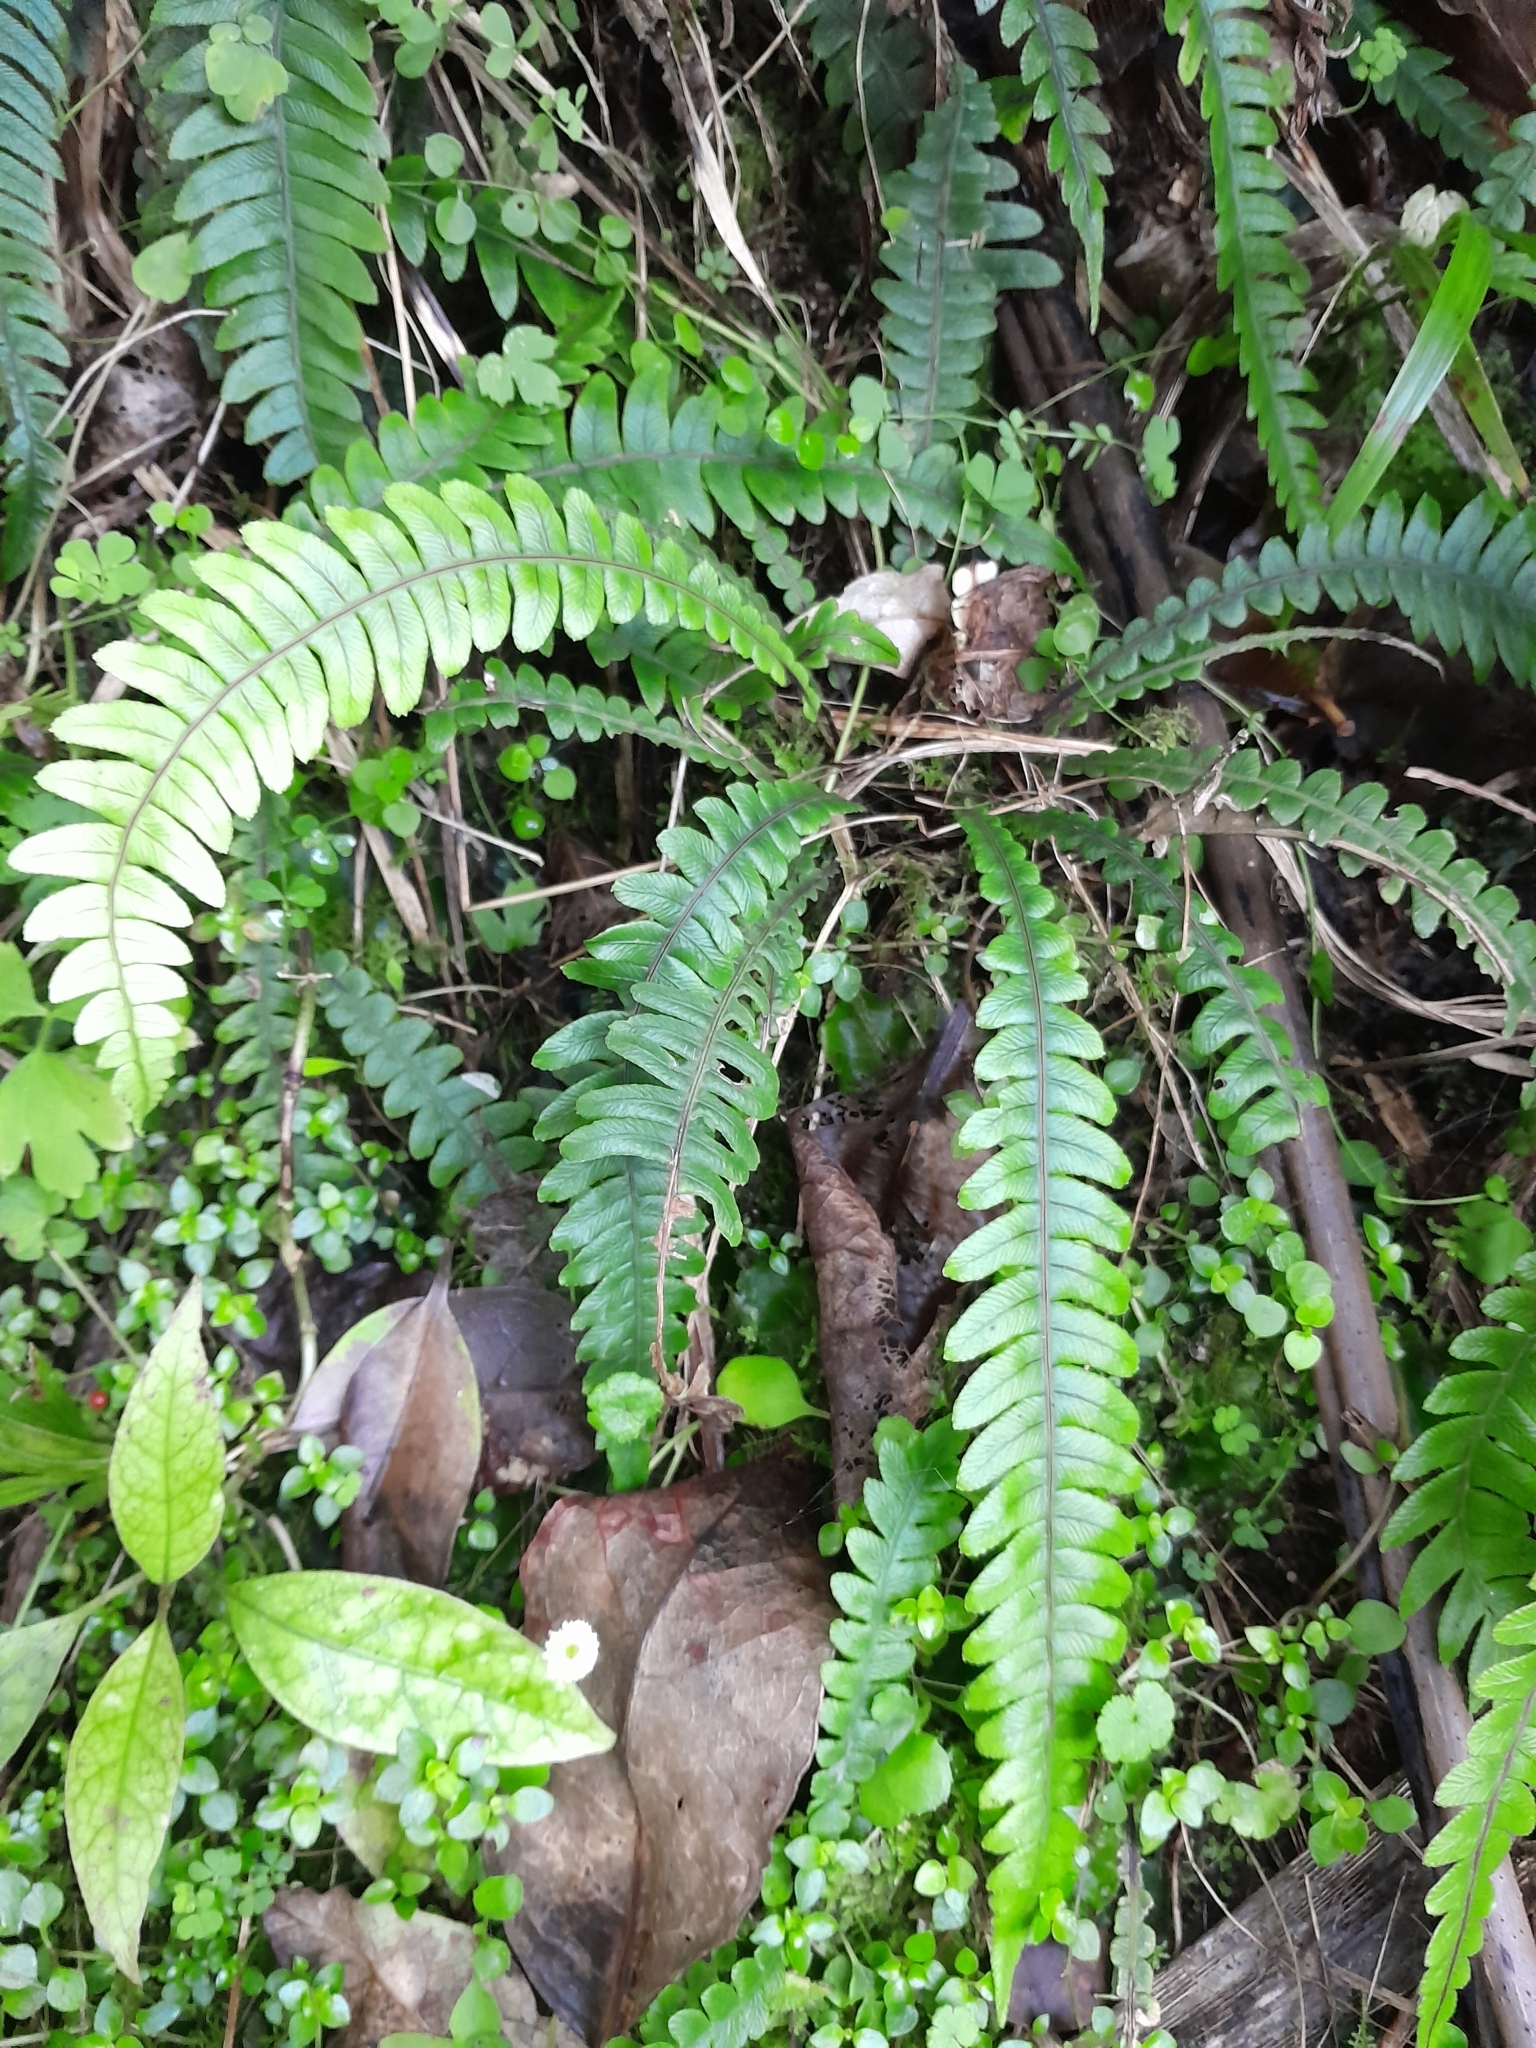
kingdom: Plantae
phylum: Tracheophyta
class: Polypodiopsida
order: Polypodiales
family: Blechnaceae
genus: Austroblechnum
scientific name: Austroblechnum lanceolatum
